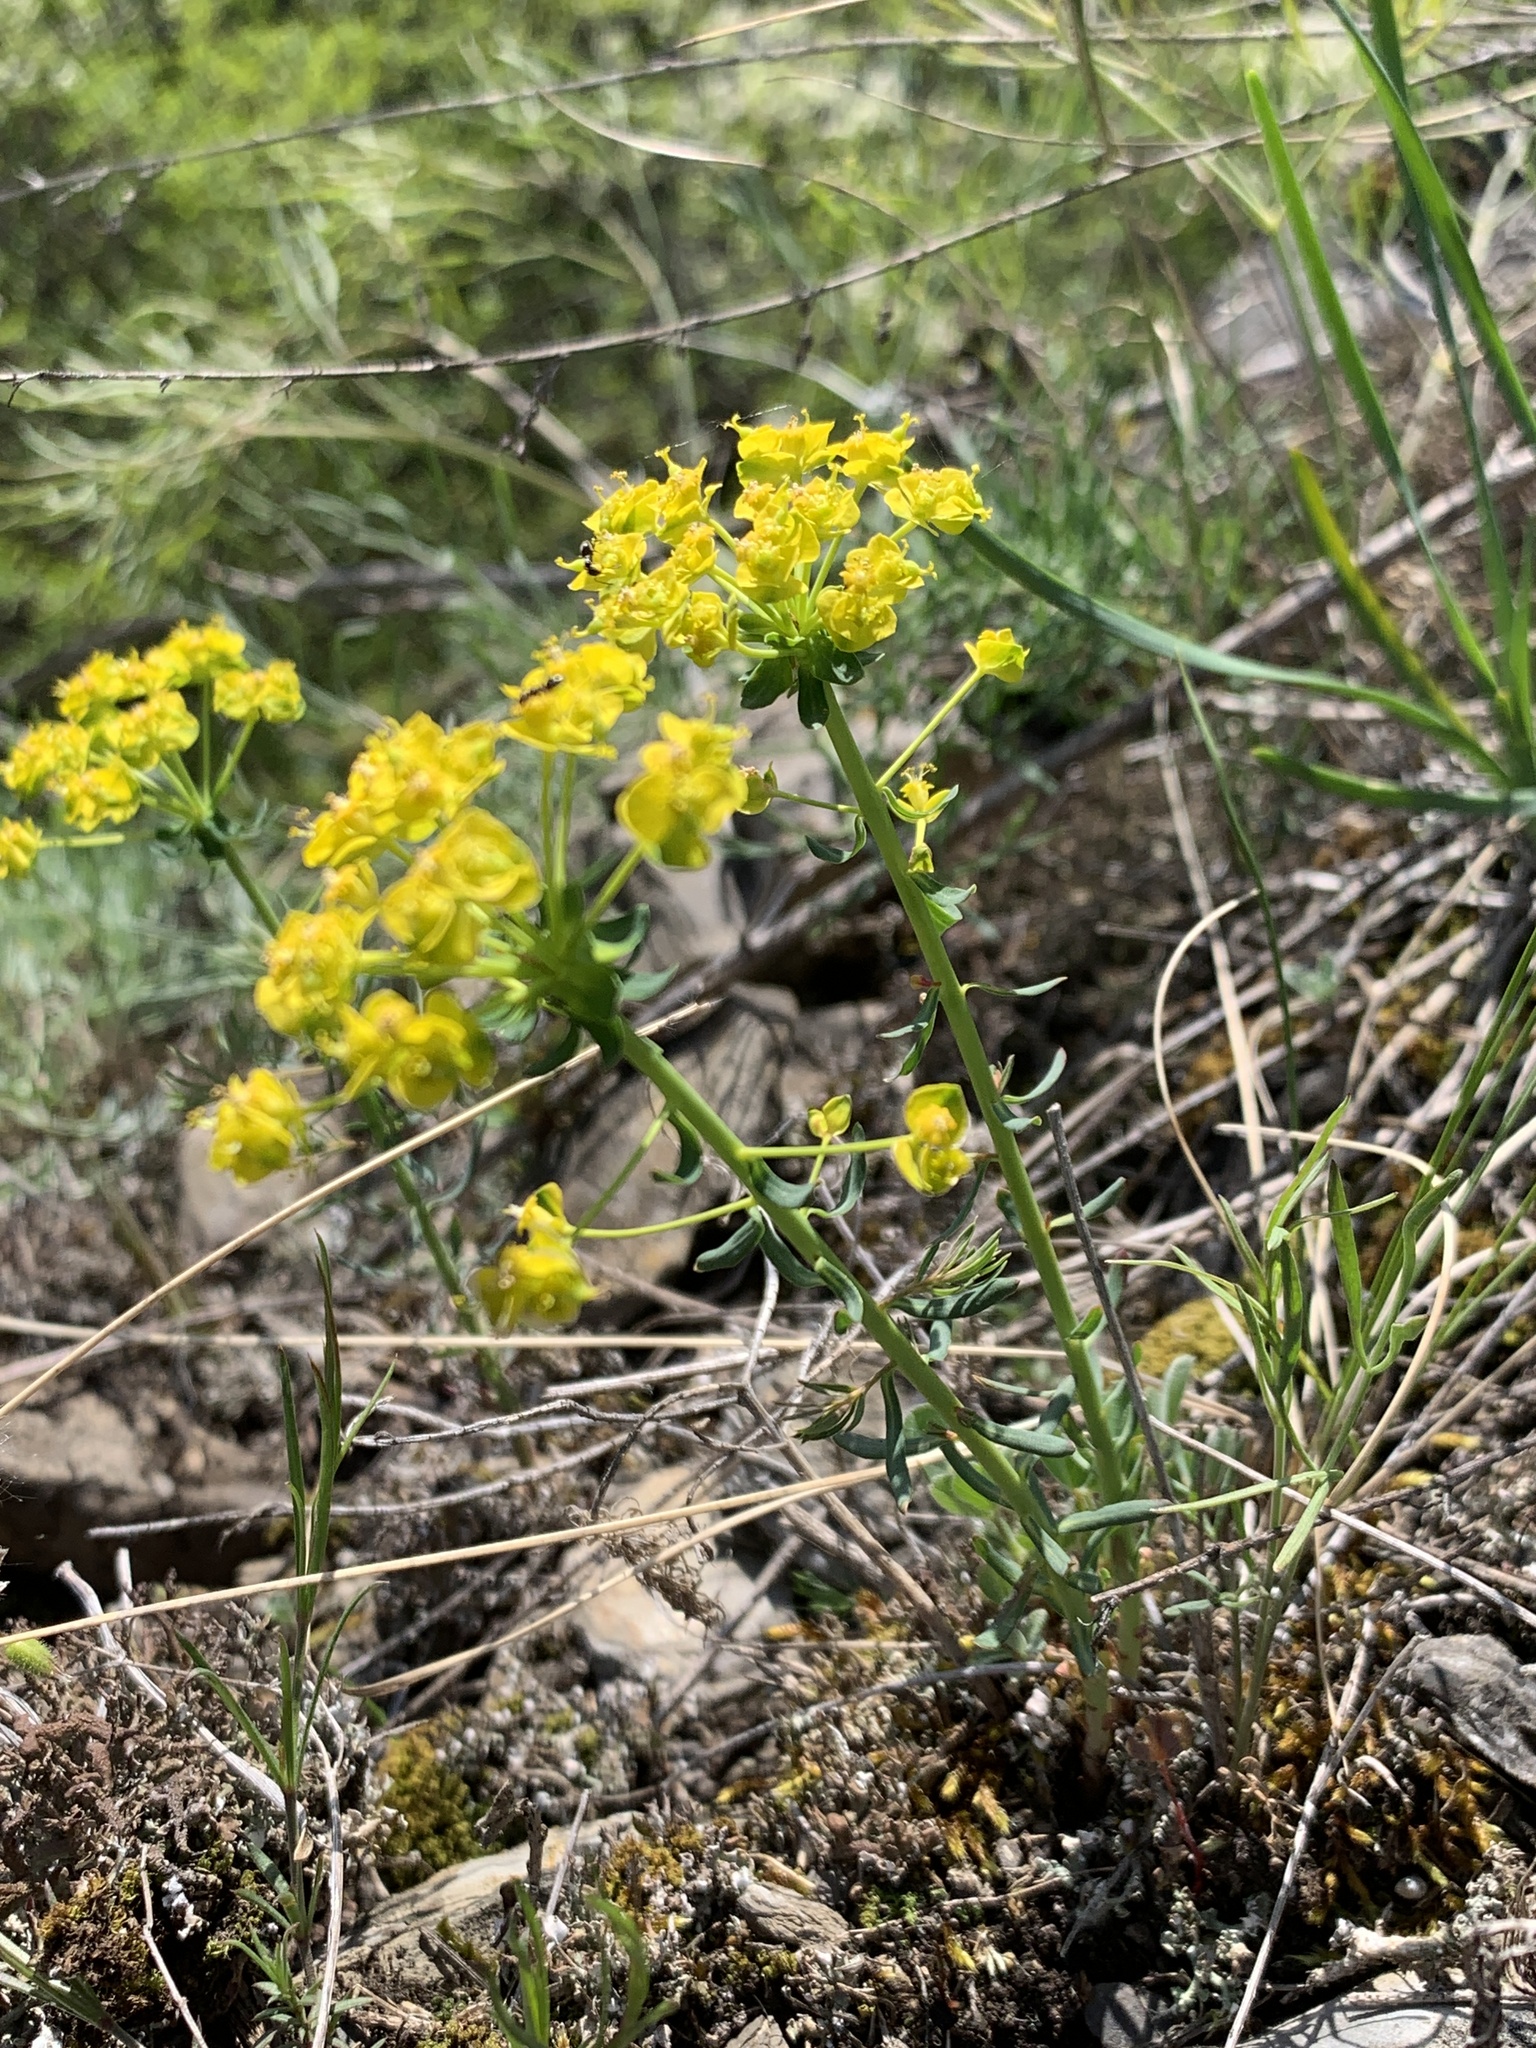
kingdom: Plantae
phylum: Tracheophyta
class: Magnoliopsida
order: Malpighiales
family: Euphorbiaceae
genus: Euphorbia
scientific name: Euphorbia cyparissias
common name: Cypress spurge
